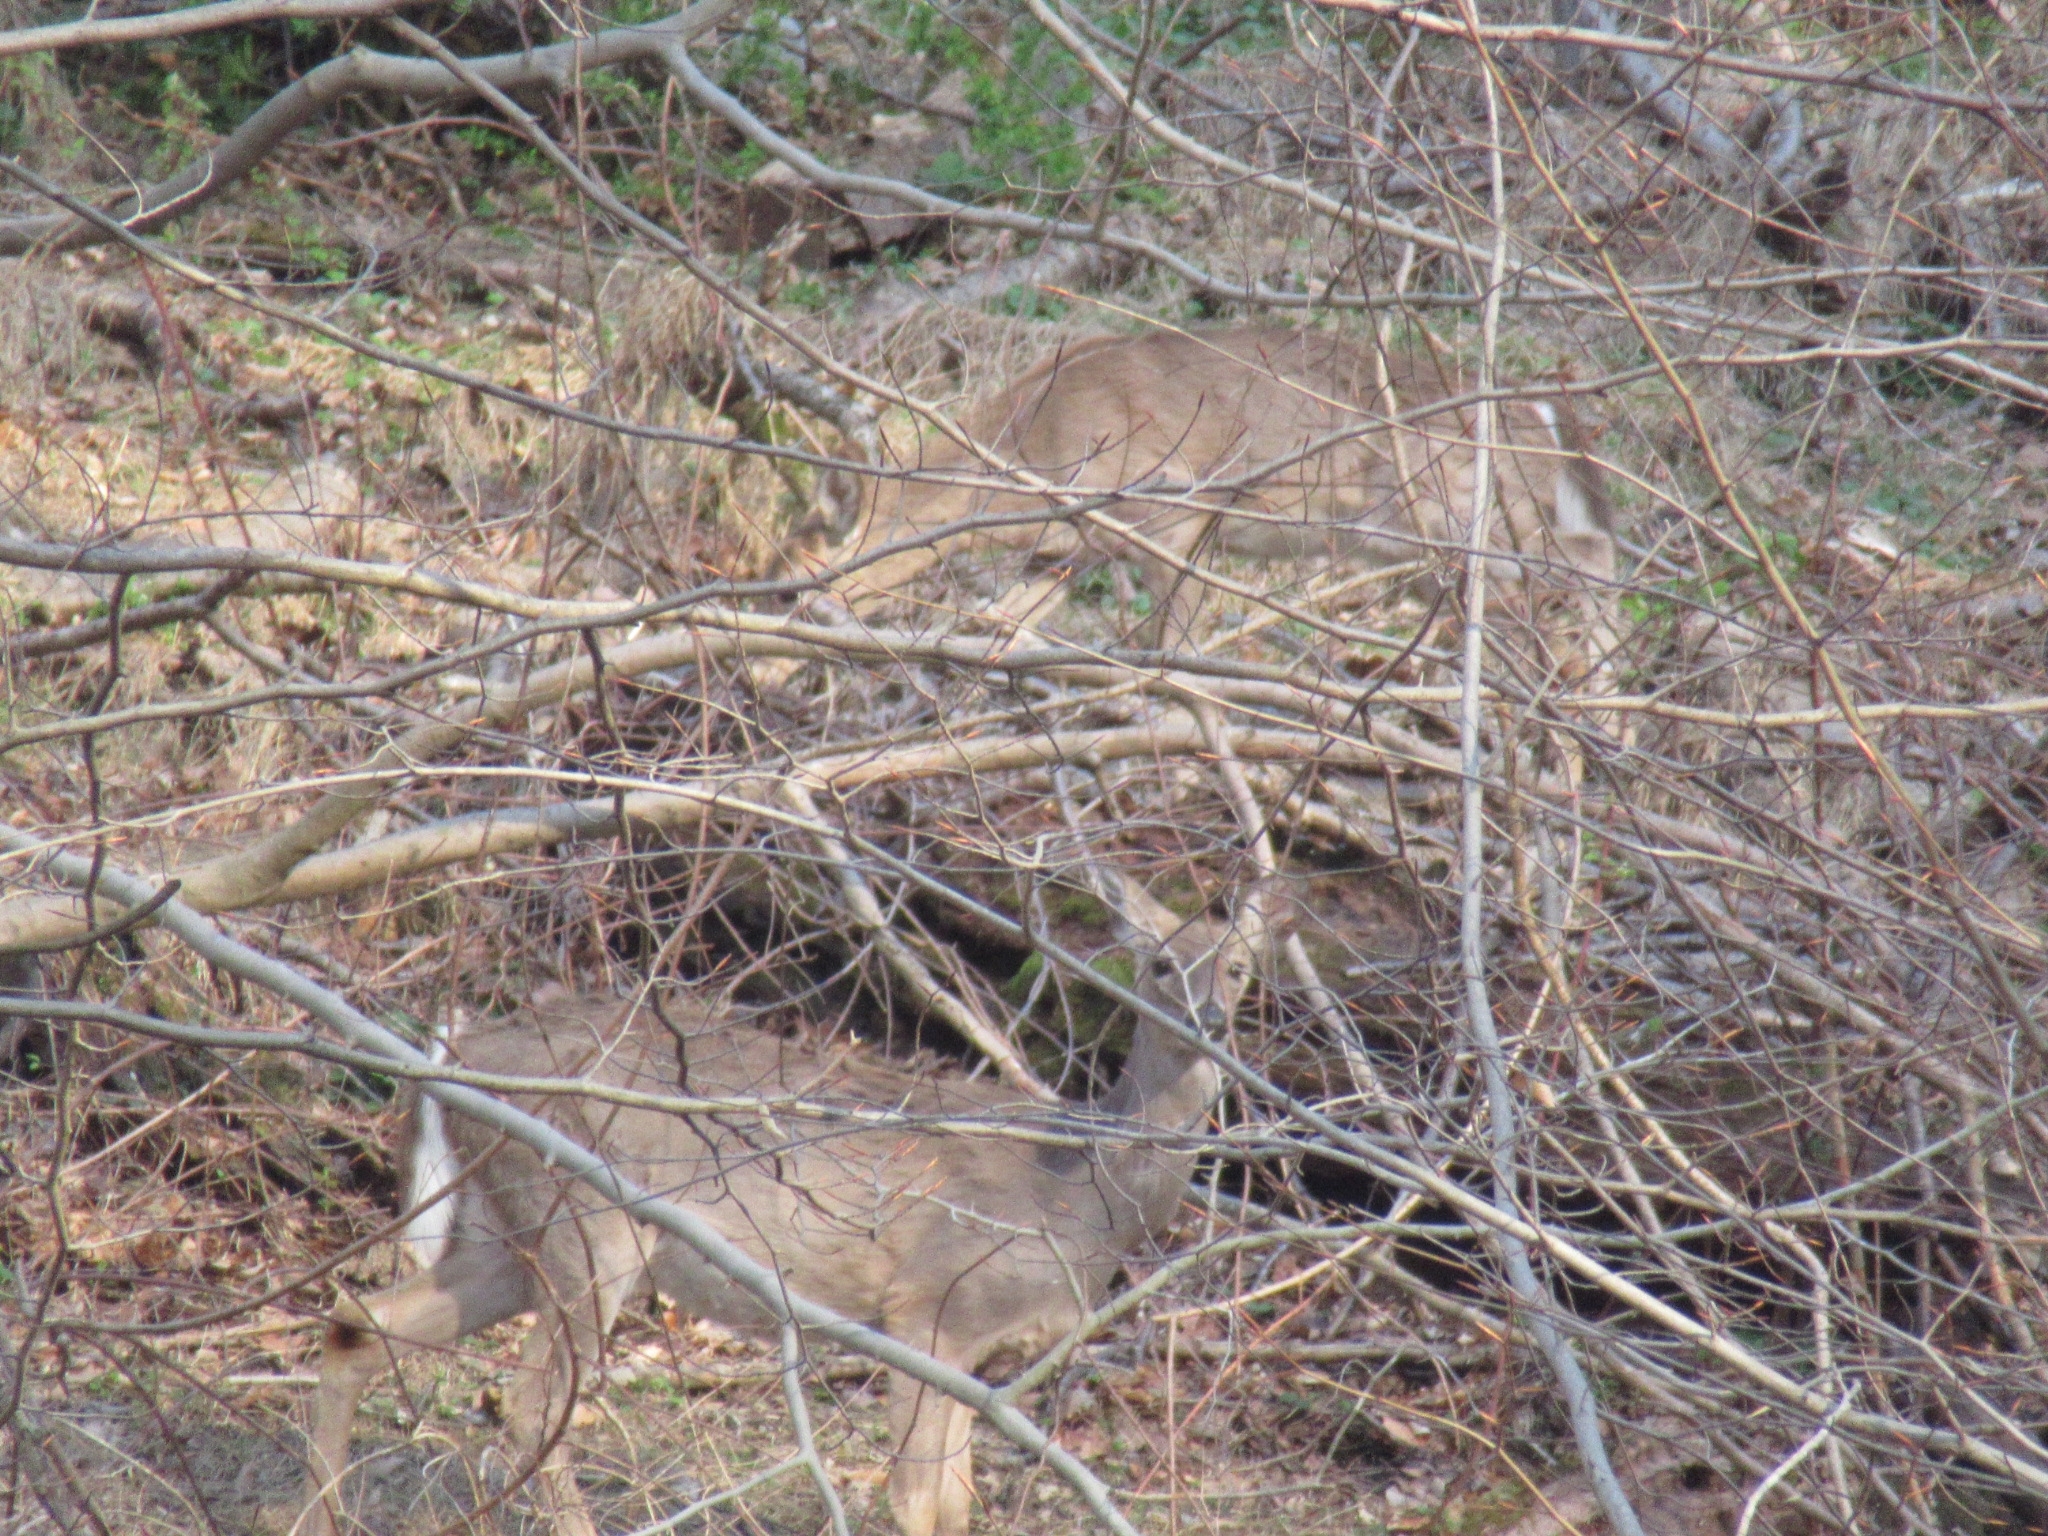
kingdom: Animalia
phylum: Chordata
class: Mammalia
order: Artiodactyla
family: Cervidae
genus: Odocoileus
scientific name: Odocoileus virginianus
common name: White-tailed deer
